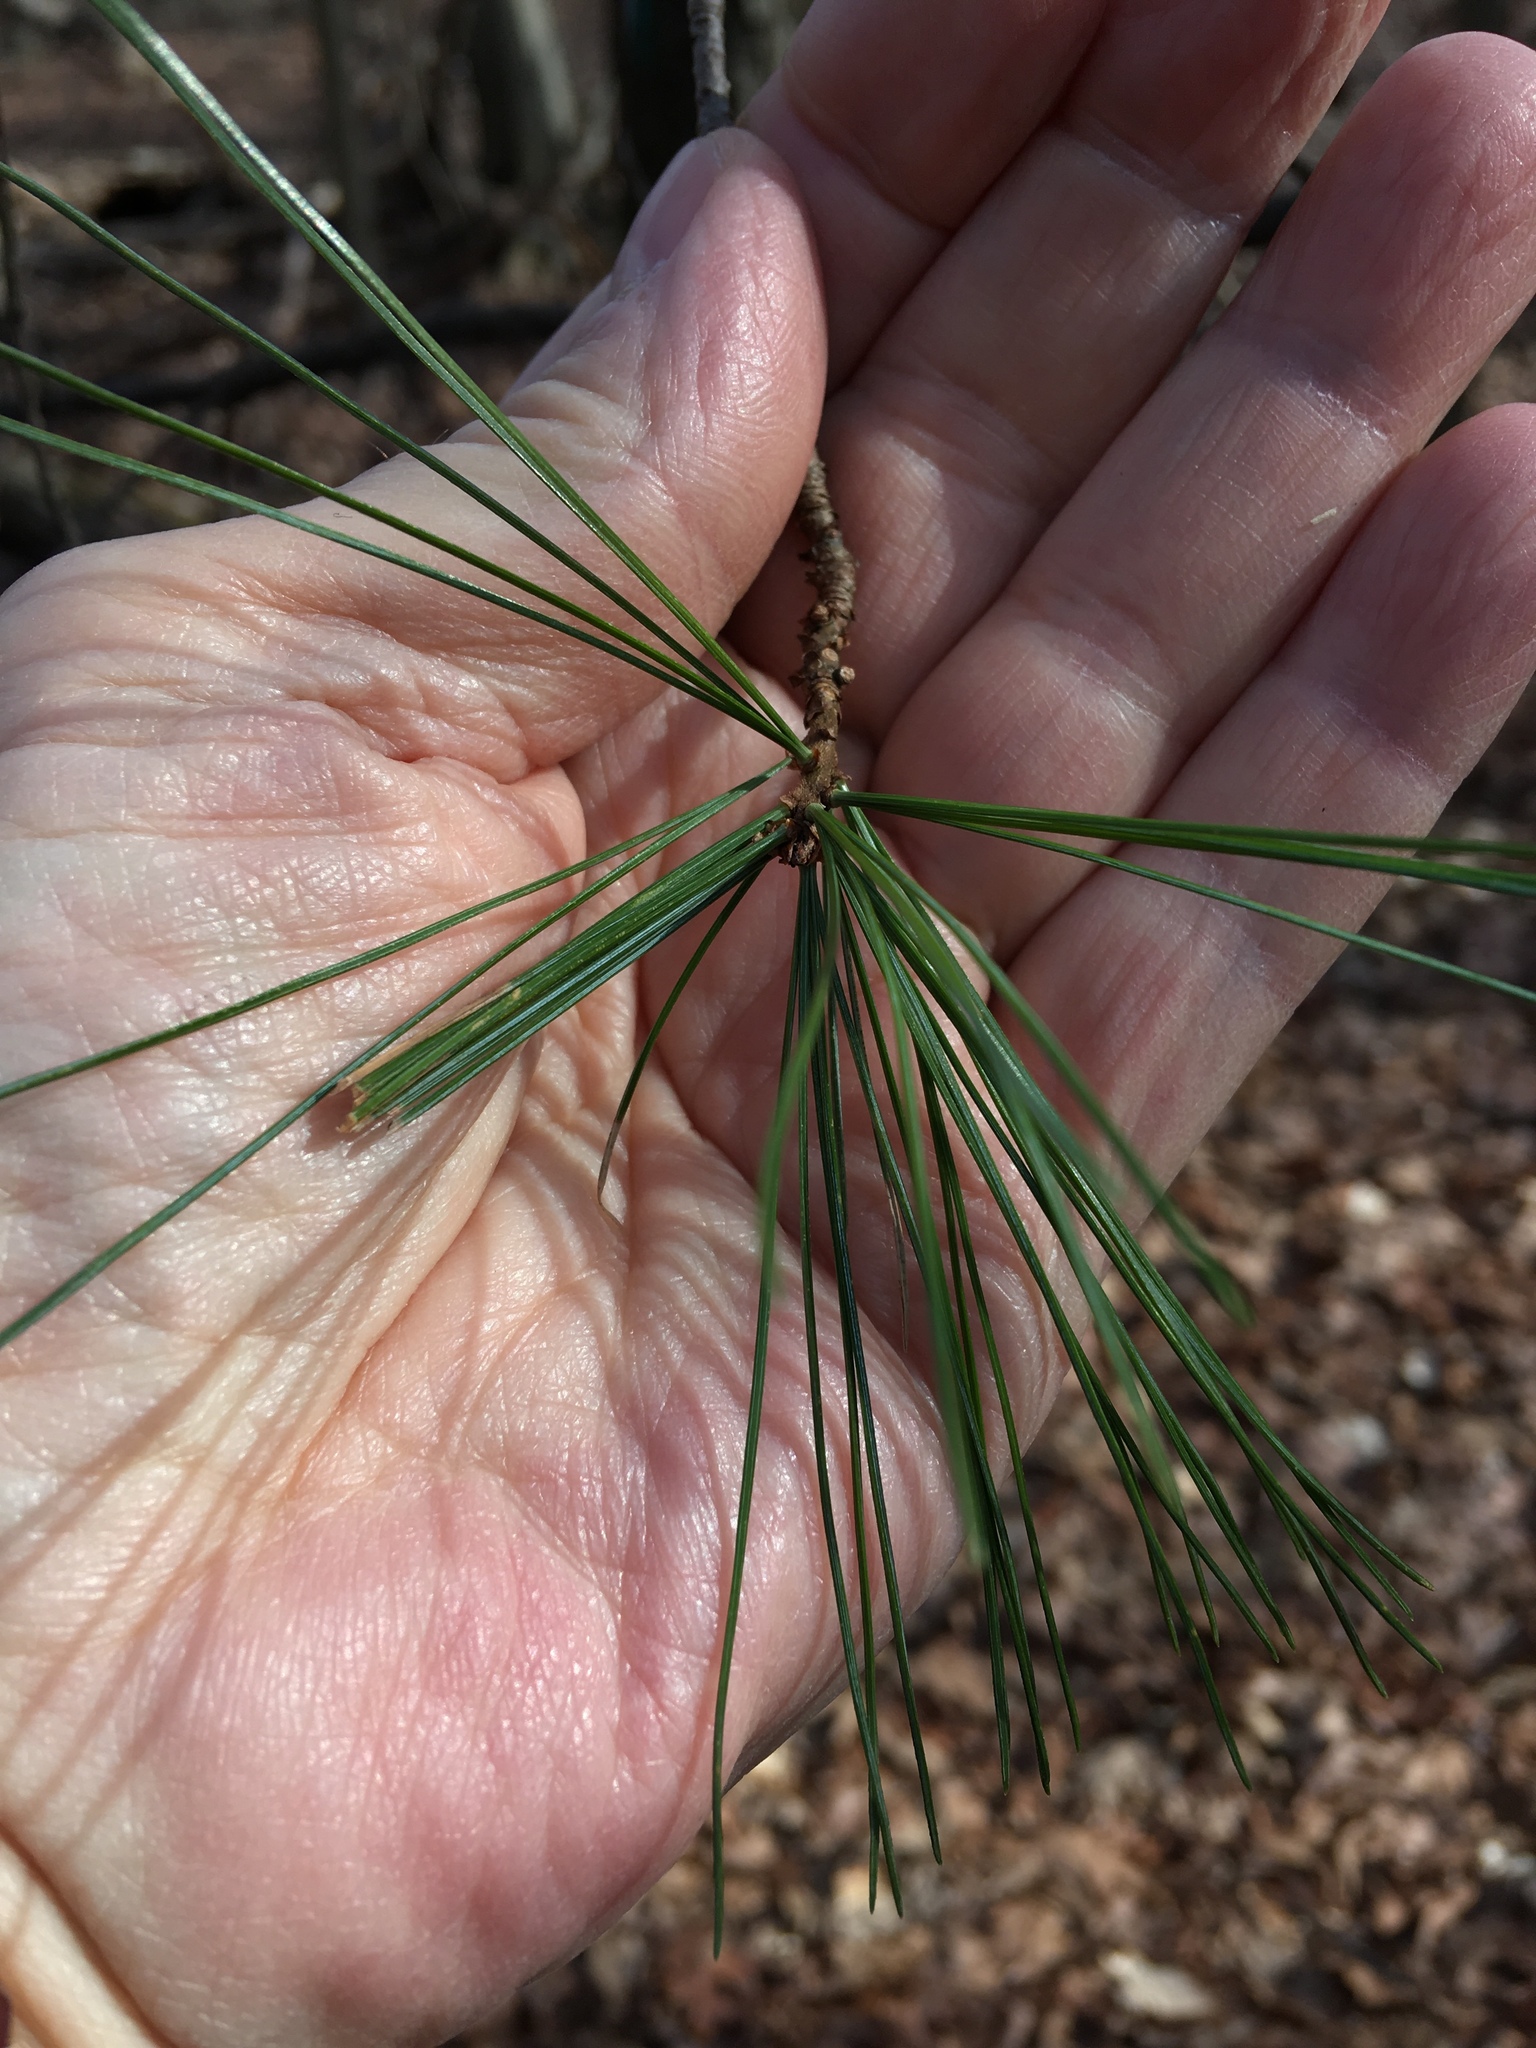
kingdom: Plantae
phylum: Tracheophyta
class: Pinopsida
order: Pinales
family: Pinaceae
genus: Pinus
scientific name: Pinus strobus
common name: Weymouth pine
